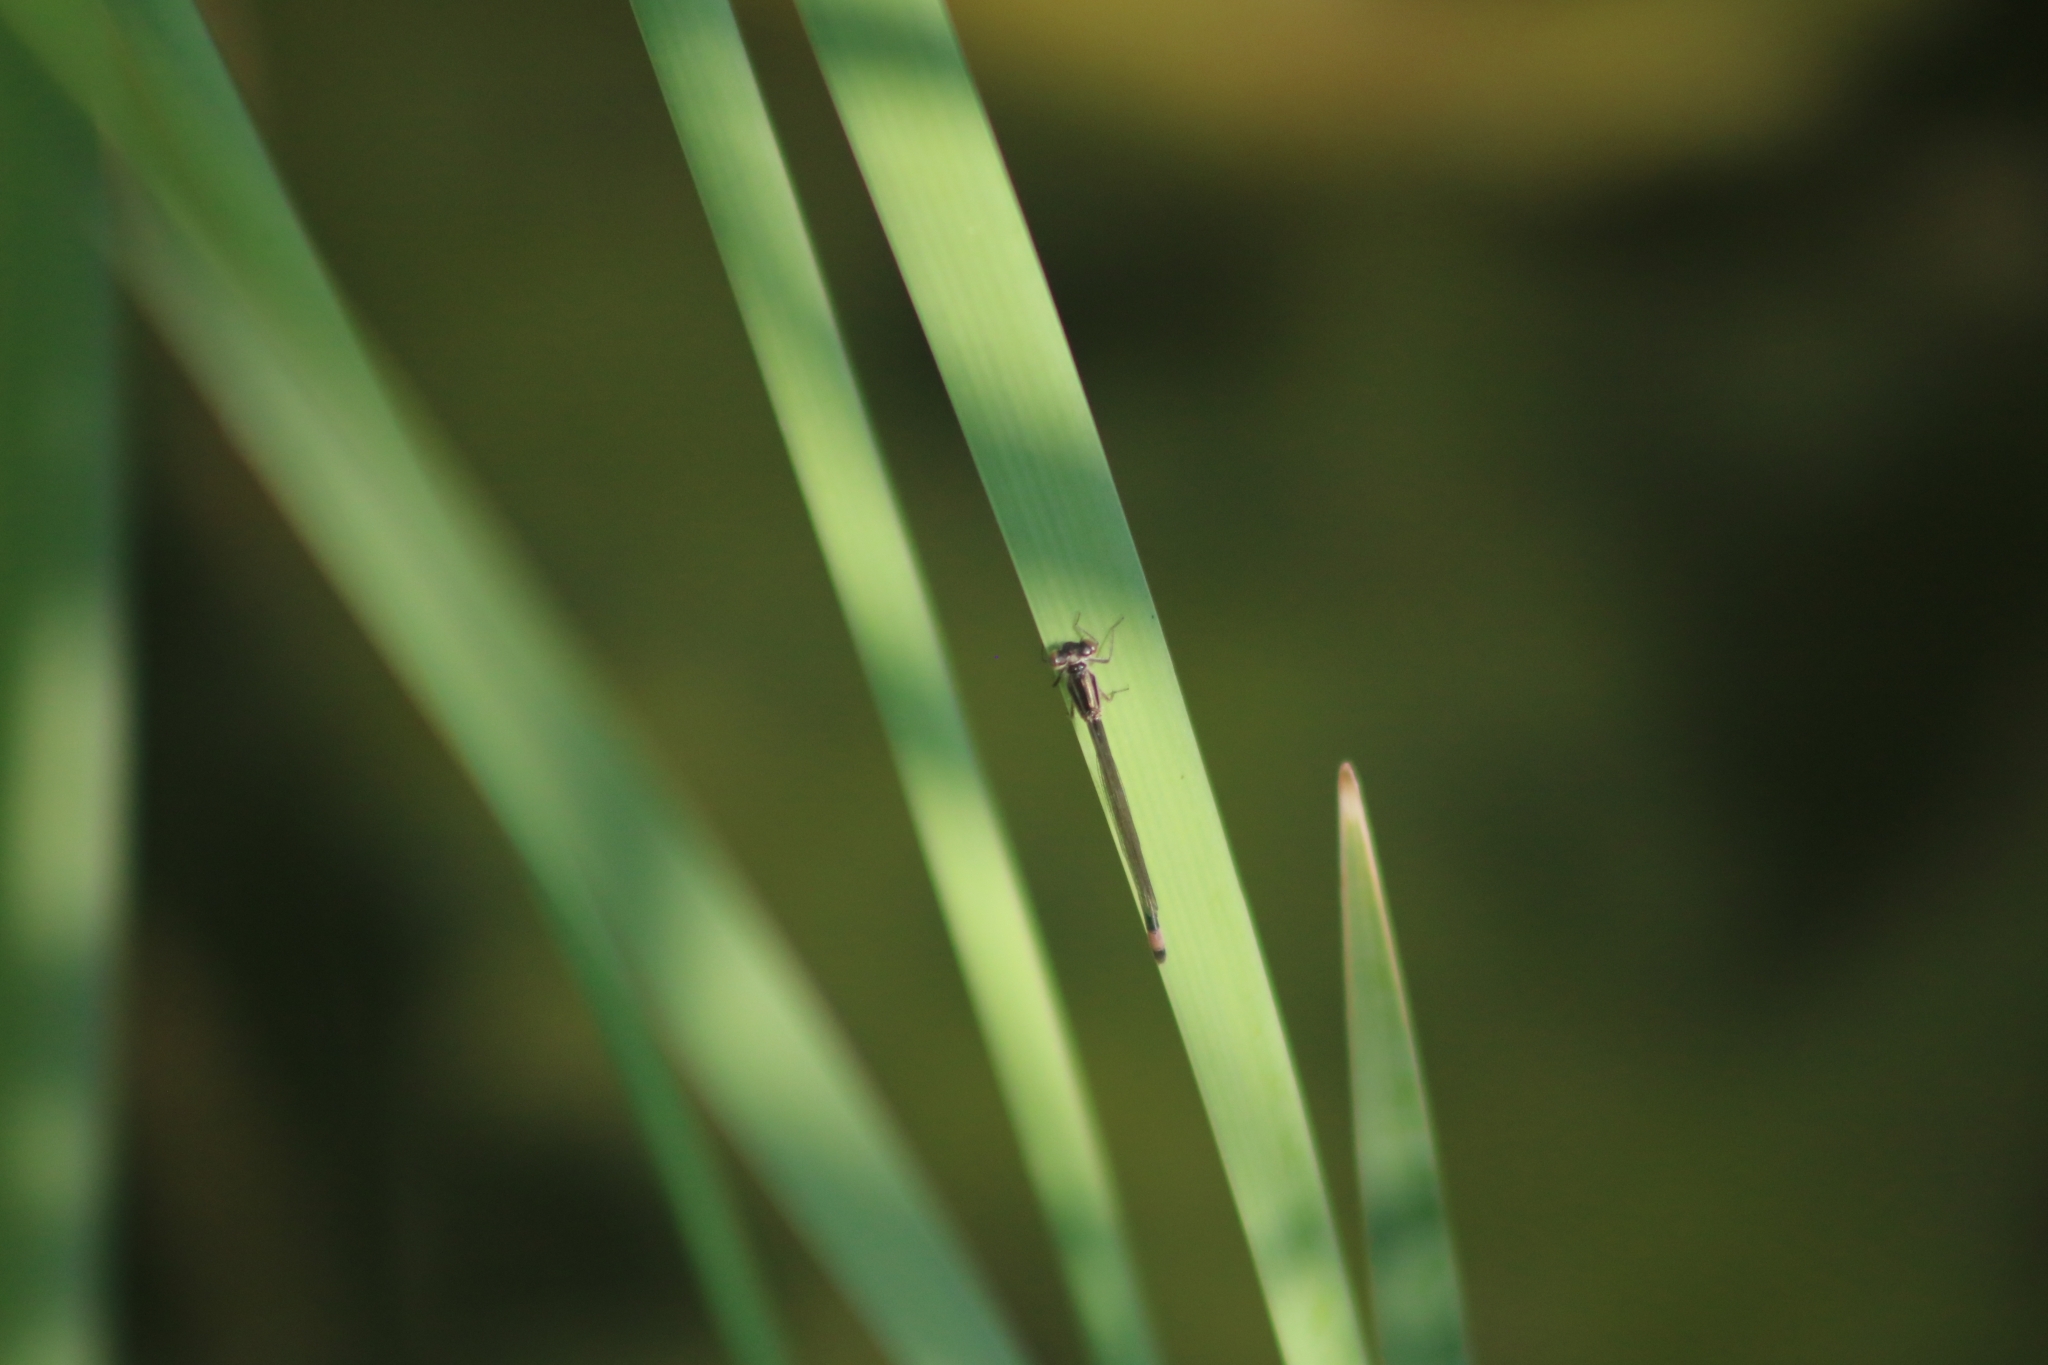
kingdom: Animalia
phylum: Arthropoda
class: Insecta
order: Odonata
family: Coenagrionidae
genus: Ischnura
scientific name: Ischnura elegans
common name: Blue-tailed damselfly
